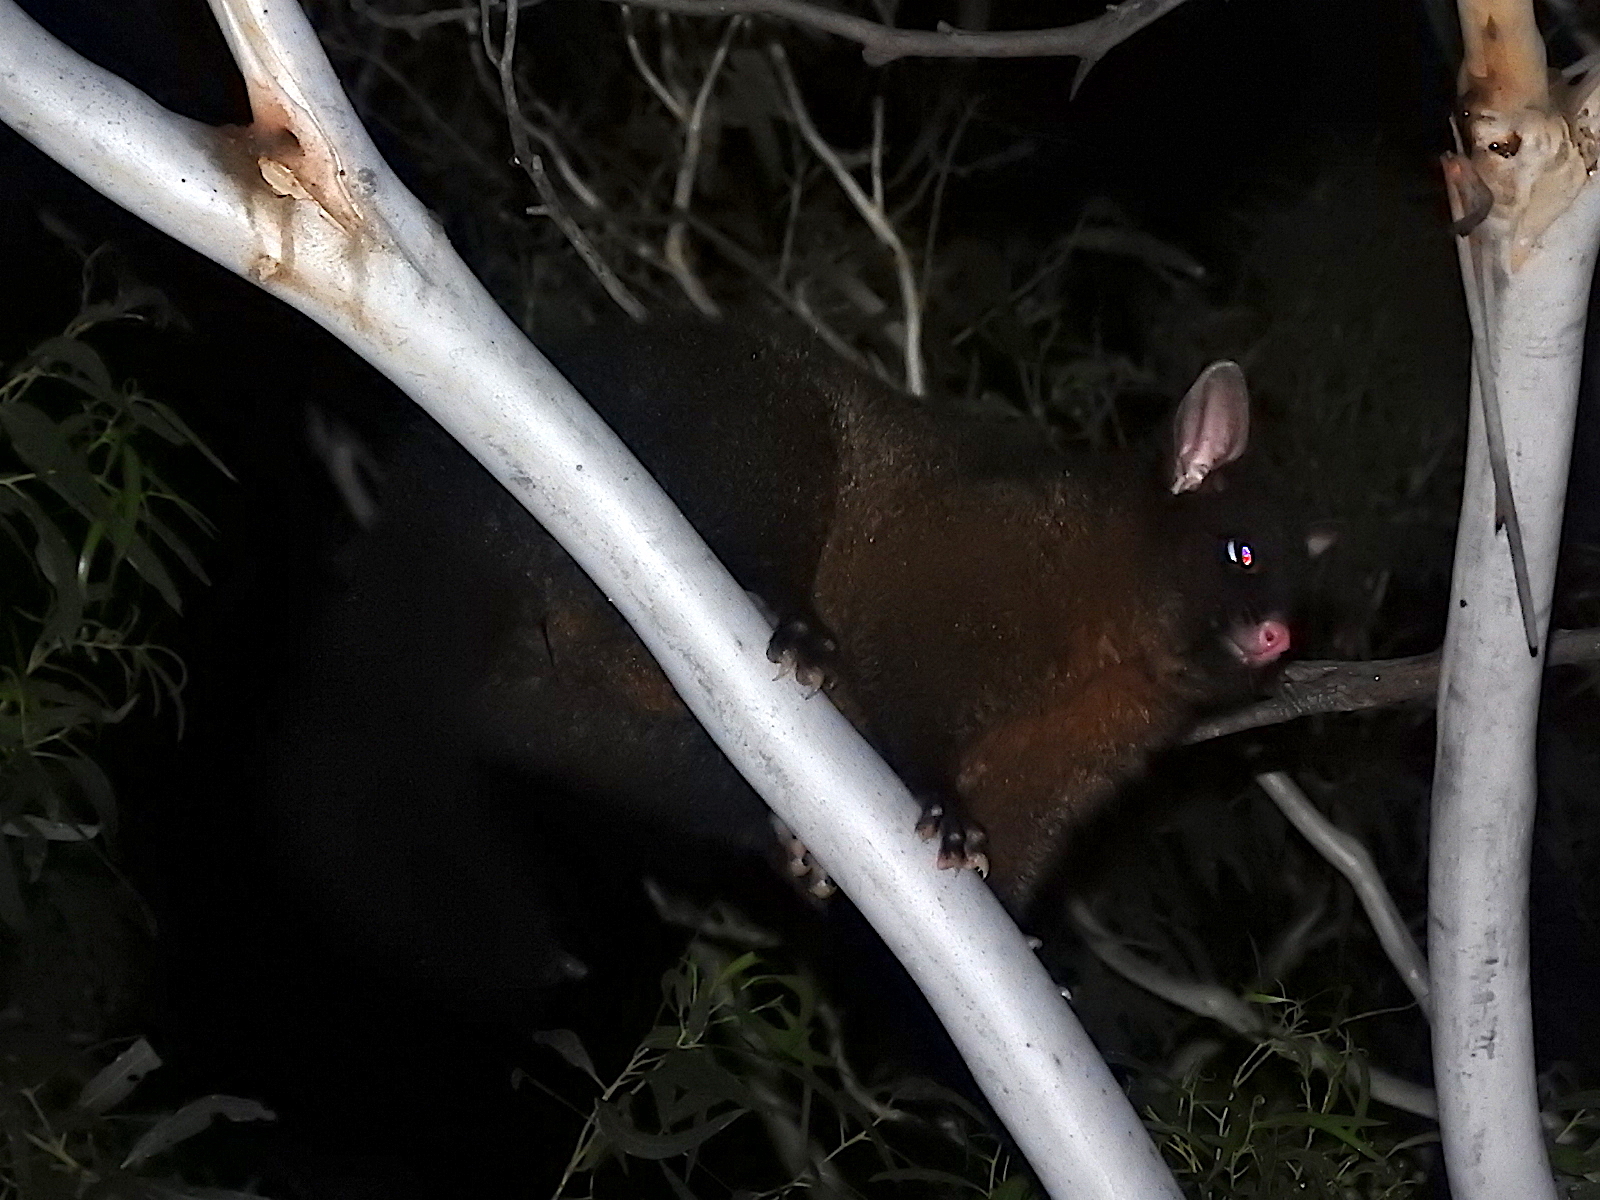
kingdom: Animalia
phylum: Chordata
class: Mammalia
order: Diprotodontia
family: Phalangeridae
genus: Trichosurus
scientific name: Trichosurus vulpecula
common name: Common brushtail
